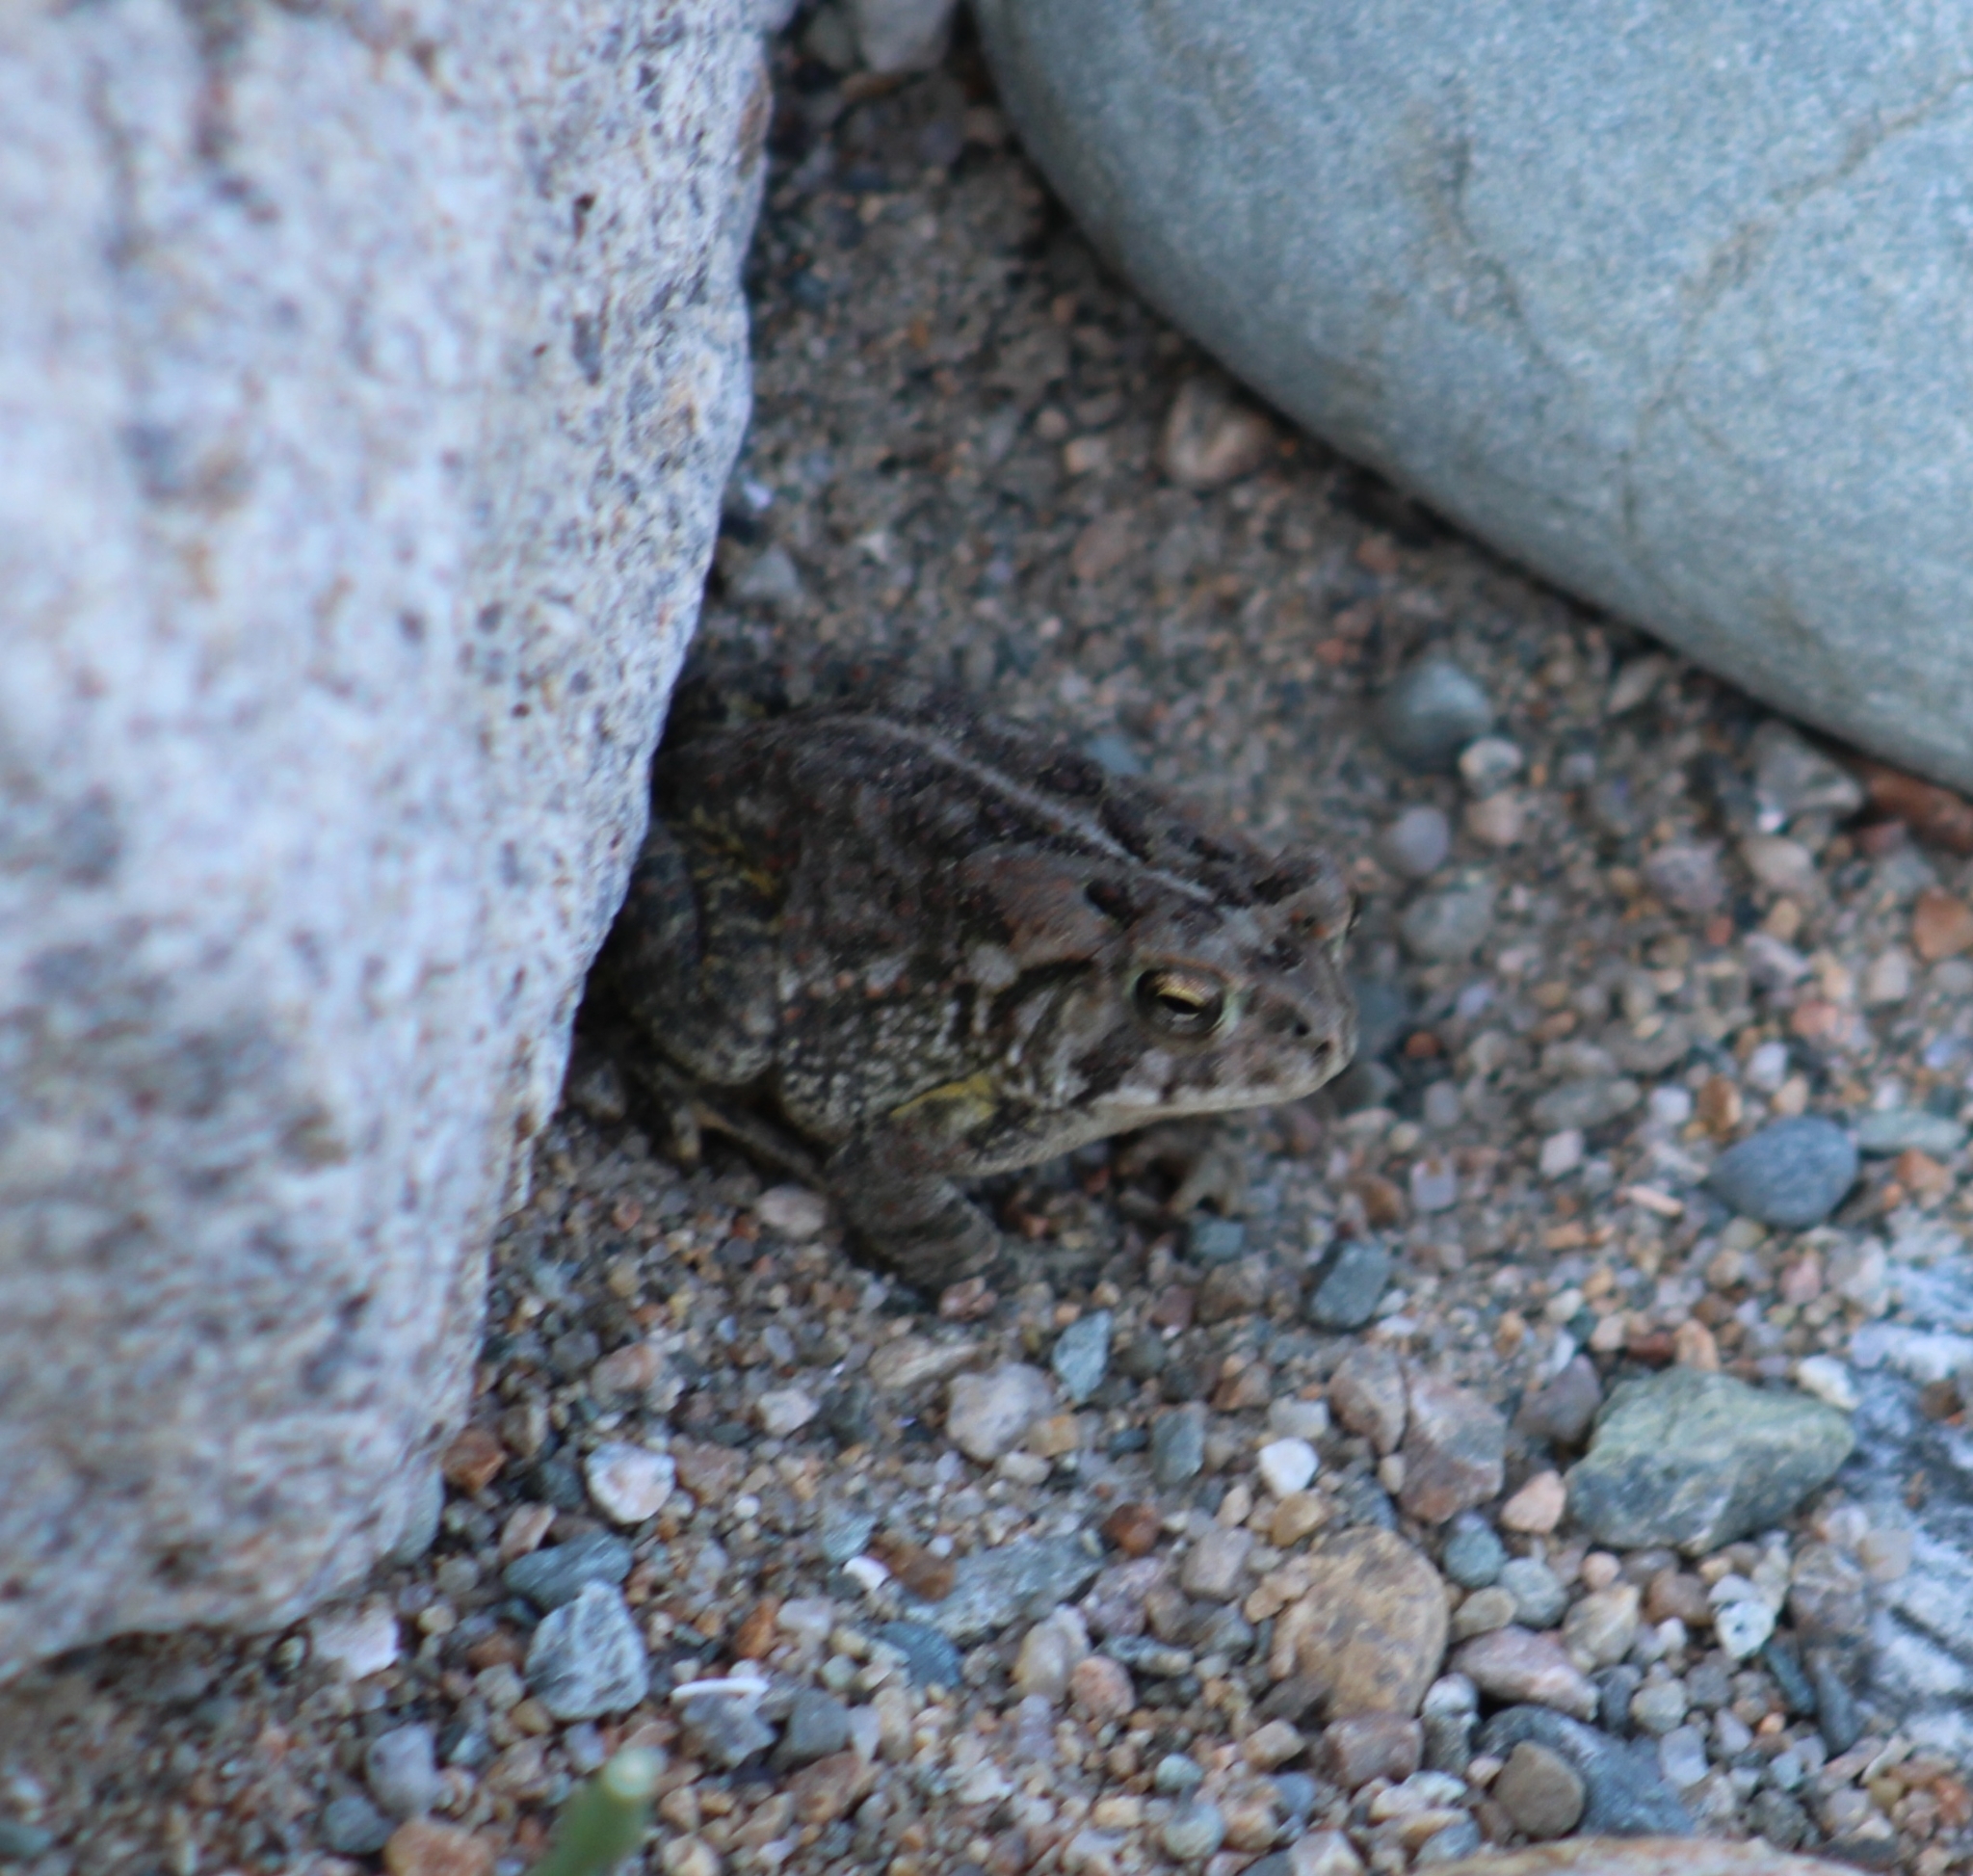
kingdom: Animalia
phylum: Chordata
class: Amphibia
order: Anura
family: Bufonidae
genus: Anaxyrus
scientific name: Anaxyrus fowleri
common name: Fowler's toad
